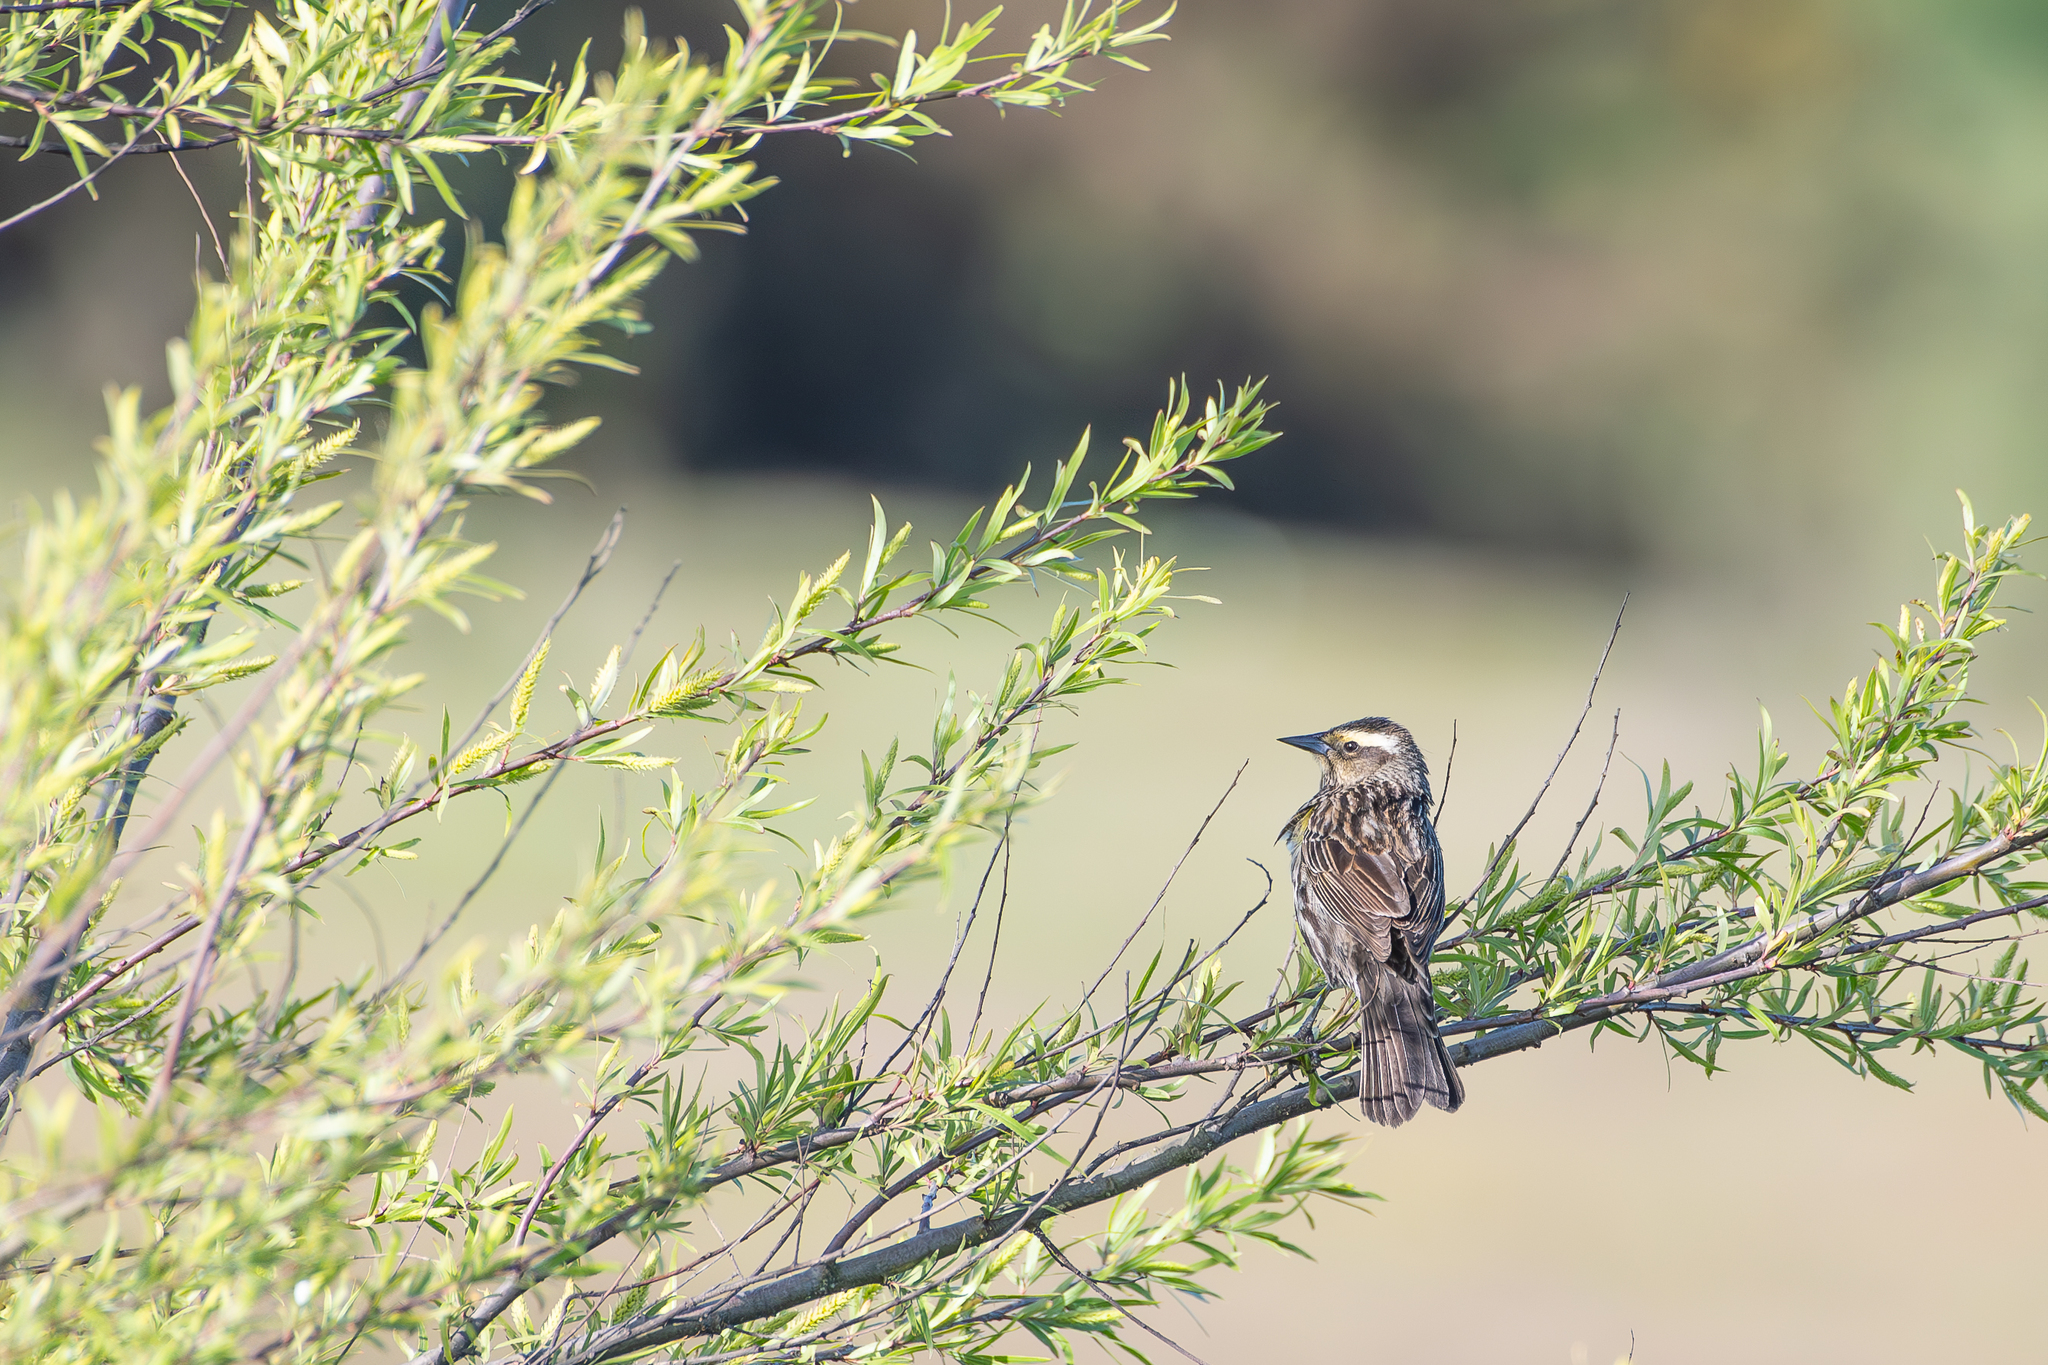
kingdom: Animalia
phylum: Chordata
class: Aves
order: Passeriformes
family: Mimidae
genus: Mimus
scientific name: Mimus thenca
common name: Chilean mockingbird
